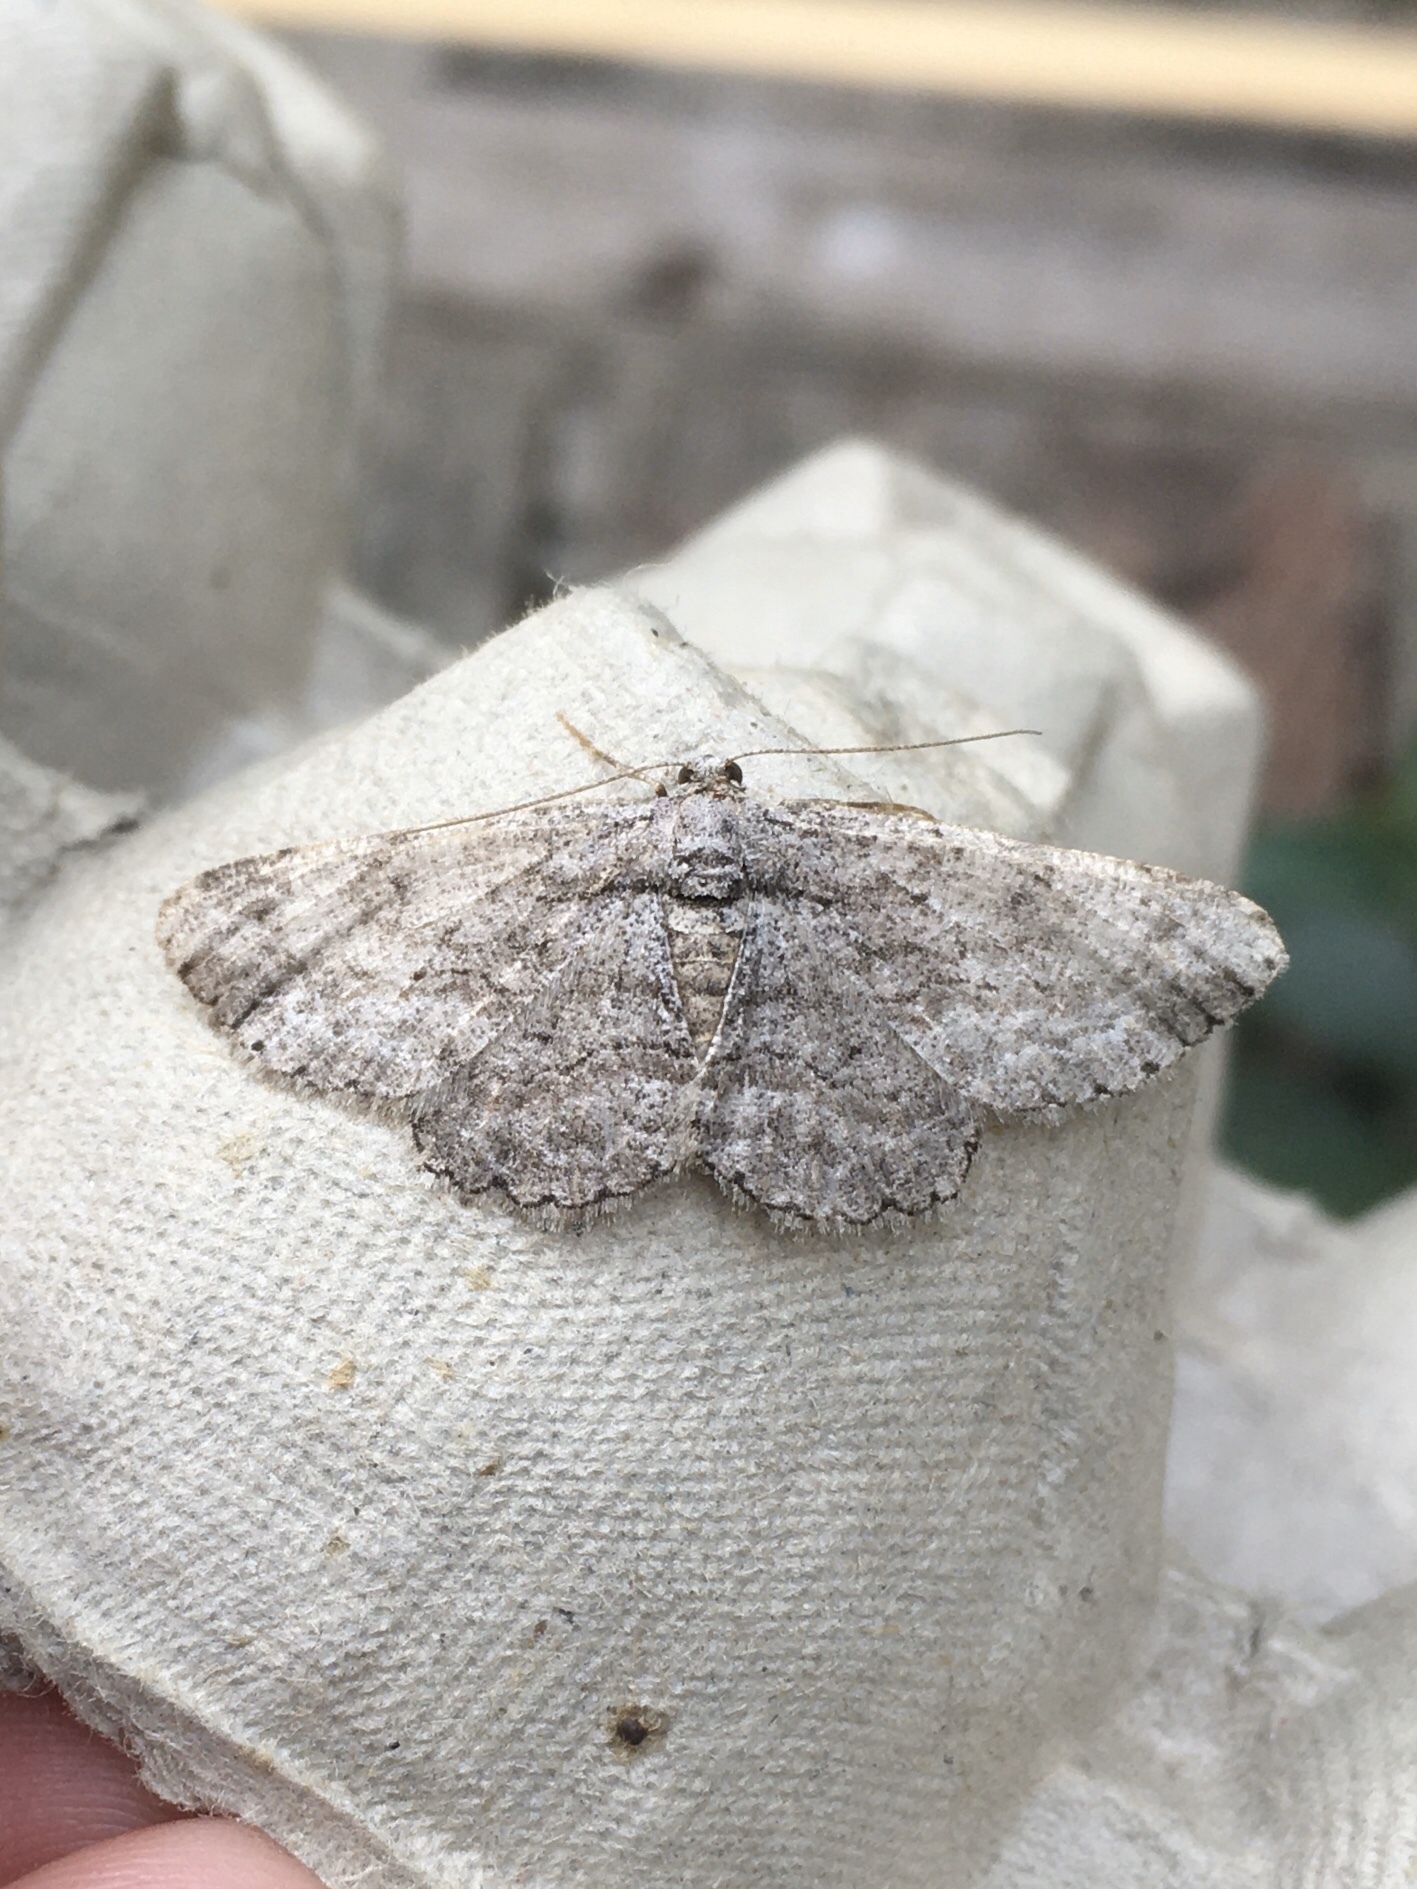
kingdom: Animalia
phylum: Arthropoda
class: Insecta
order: Lepidoptera
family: Geometridae
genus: Anavitrinella
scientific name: Anavitrinella pampinaria
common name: Common gray
